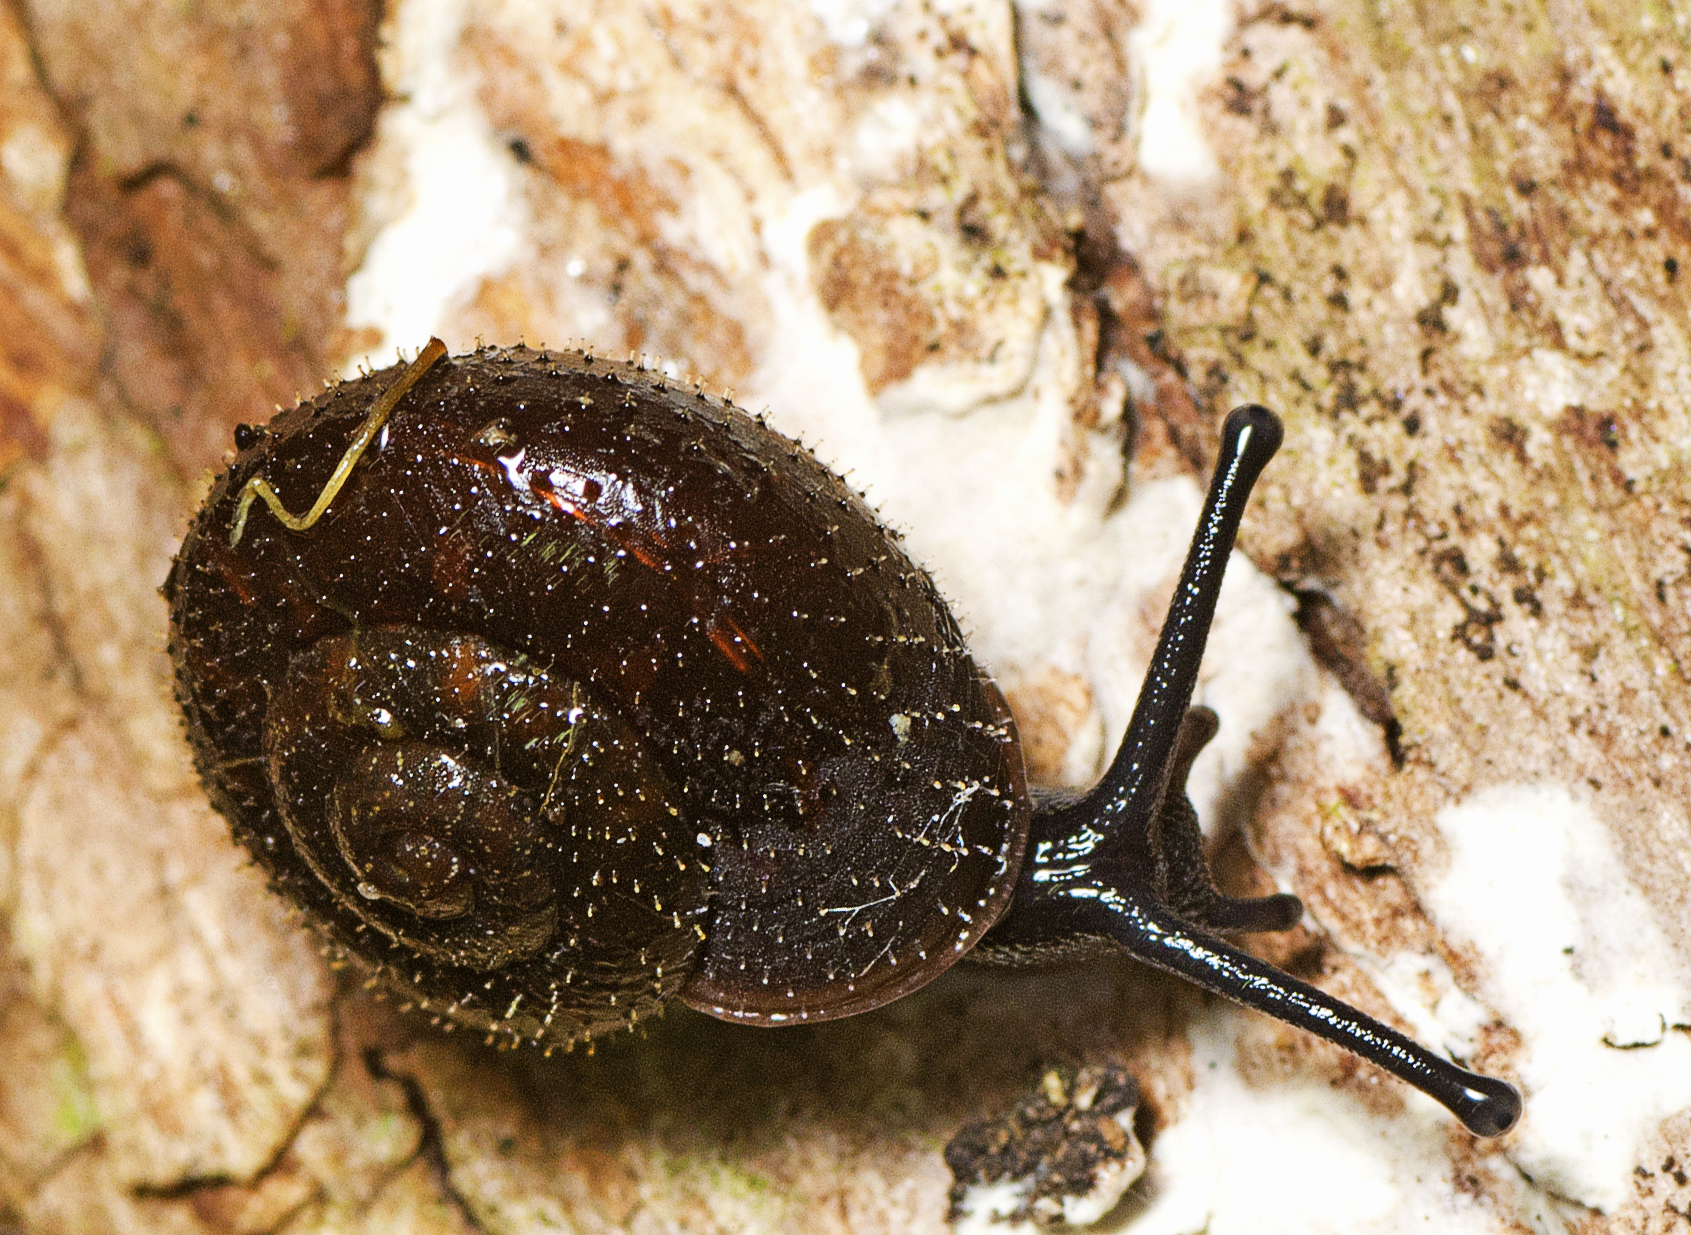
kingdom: Animalia
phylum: Mollusca
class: Gastropoda
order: Stylommatophora
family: Camaenidae
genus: Mussonena
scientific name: Mussonena boonah
